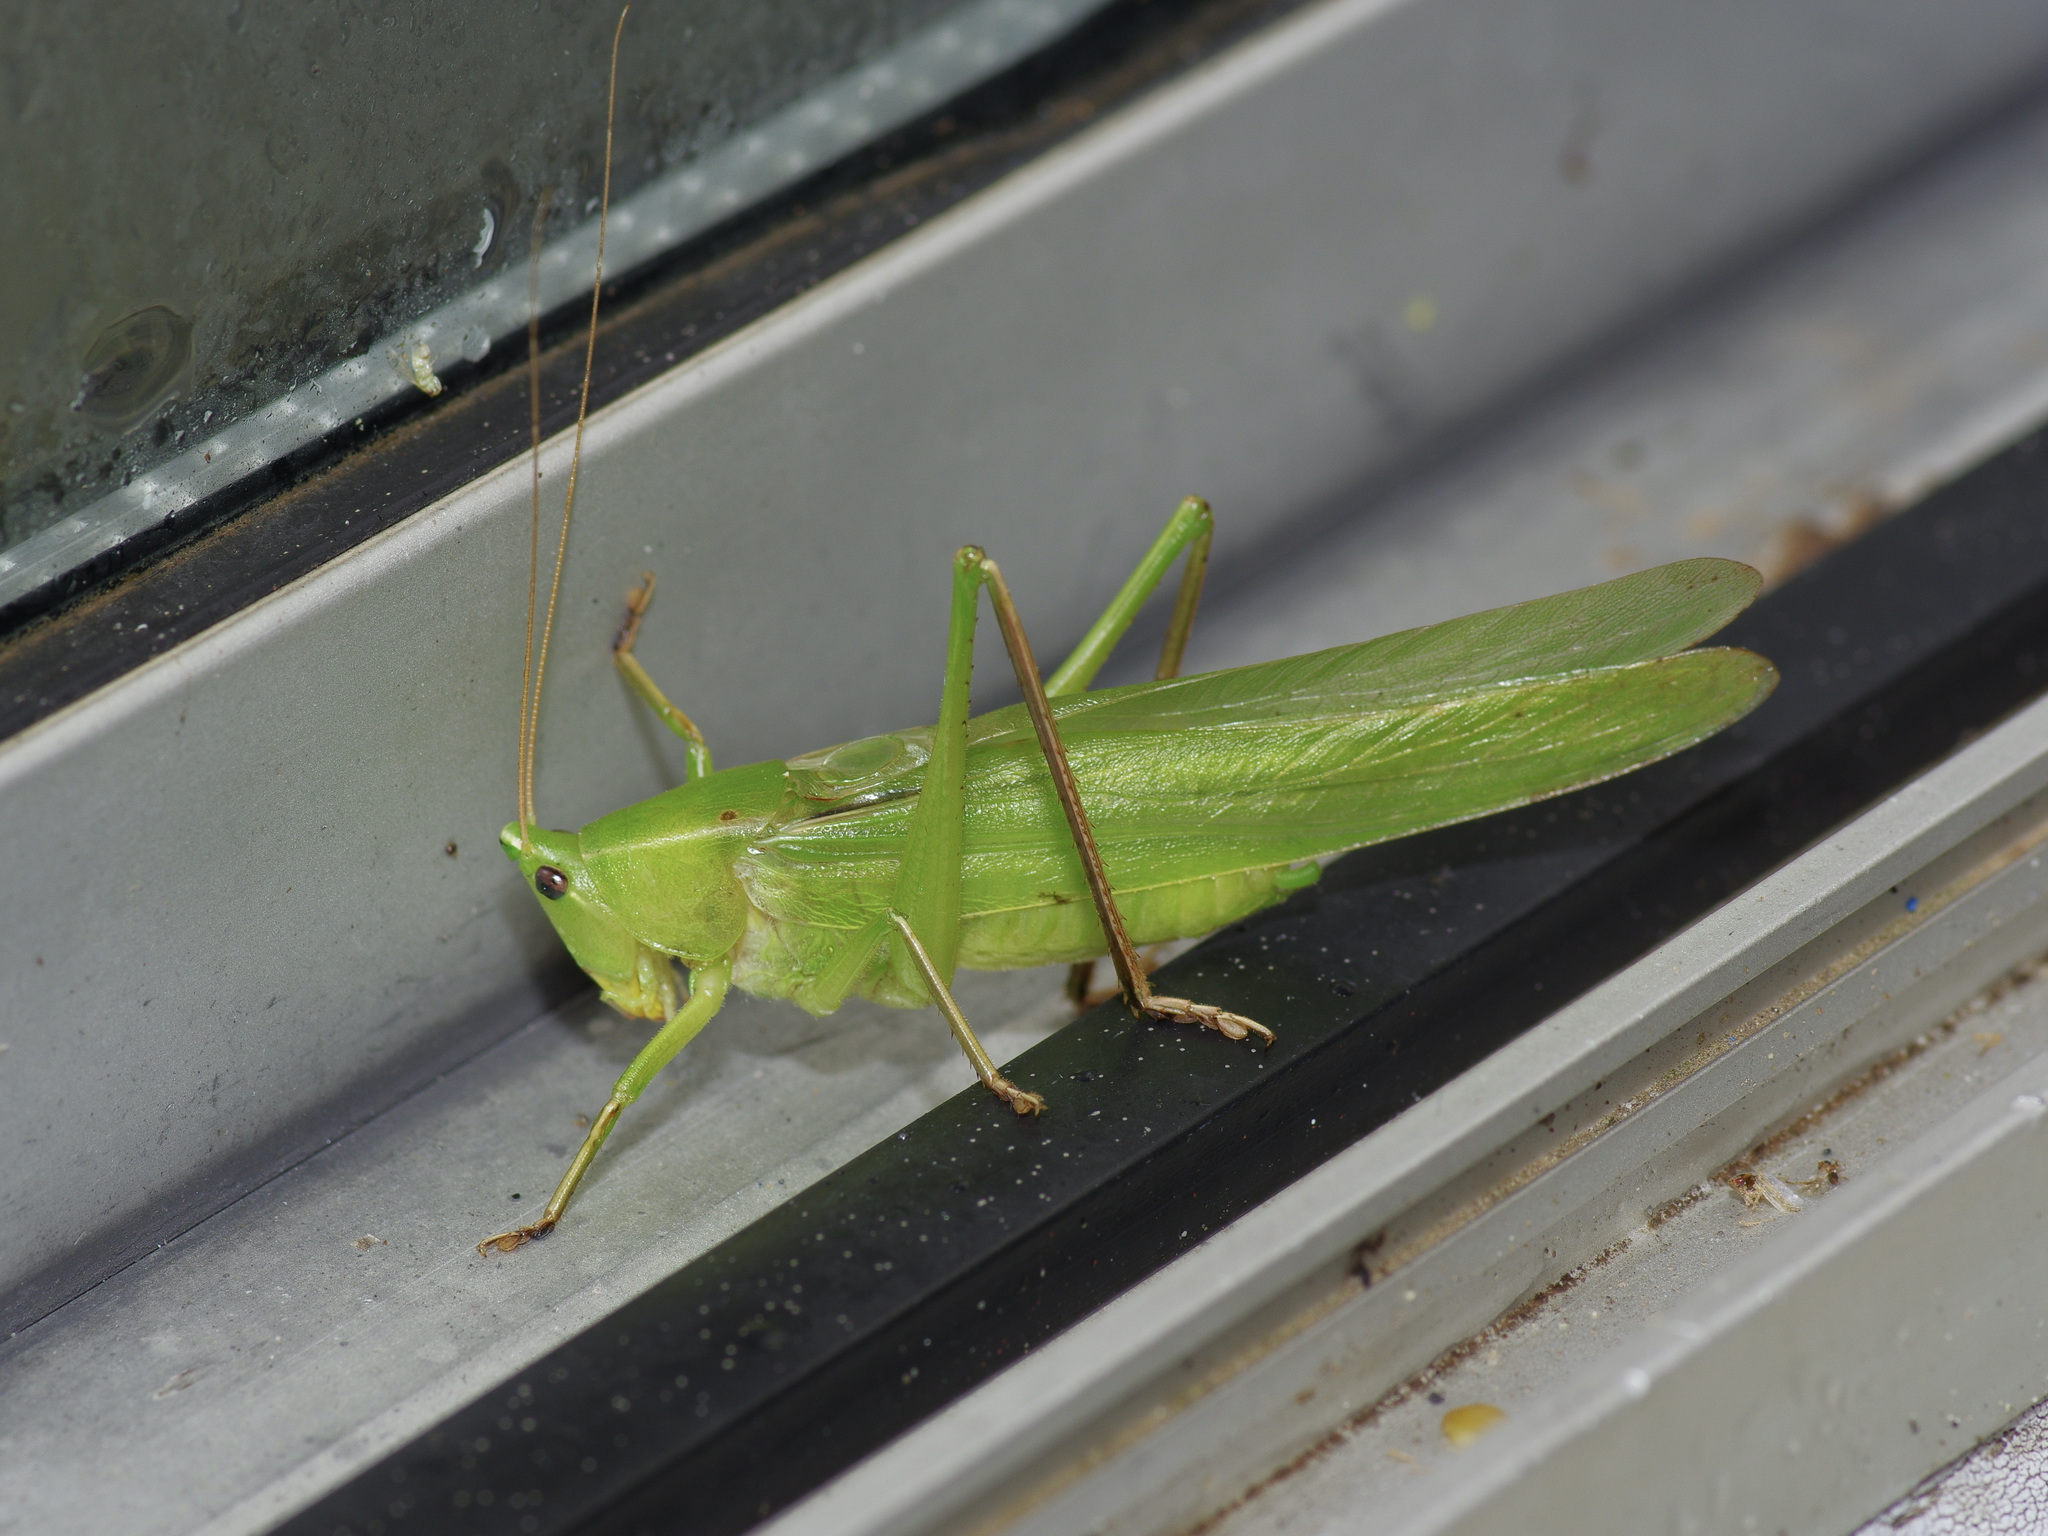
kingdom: Animalia
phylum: Arthropoda
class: Insecta
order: Orthoptera
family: Tettigoniidae
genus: Neoconocephalus
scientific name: Neoconocephalus triops
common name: Broad-tipped conehead
